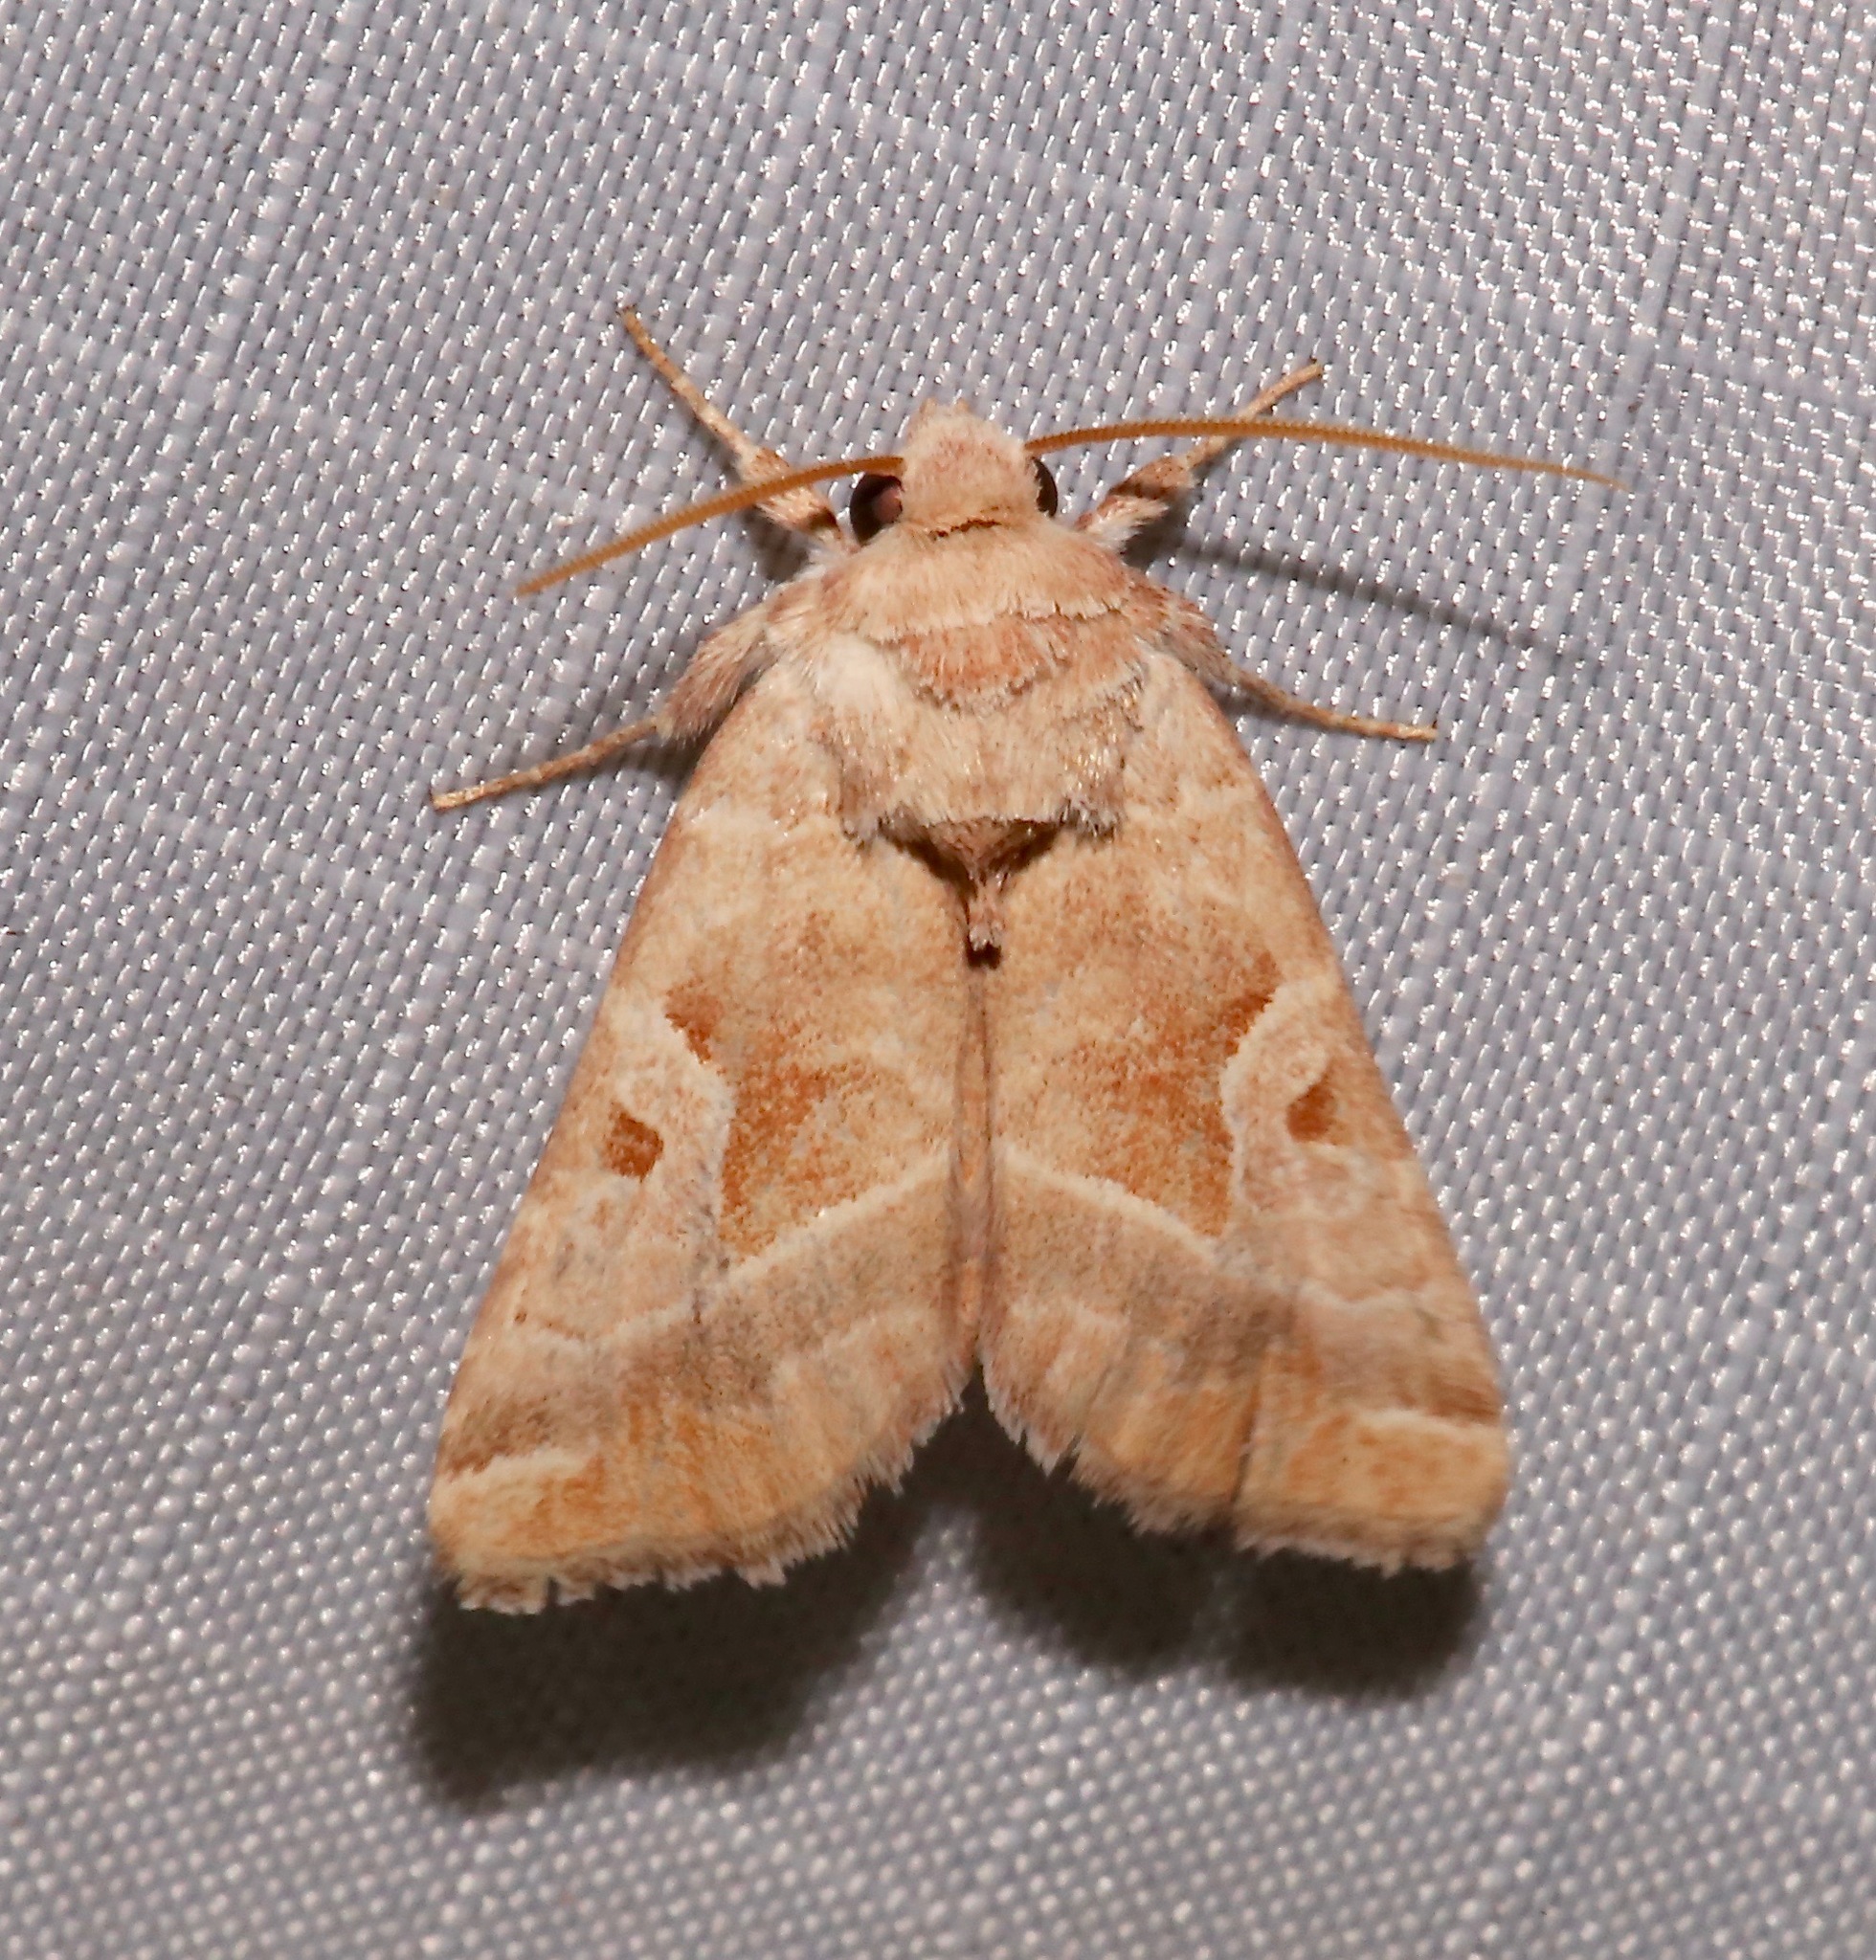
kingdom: Animalia
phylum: Arthropoda
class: Insecta
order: Lepidoptera
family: Noctuidae
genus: Hexorthodes
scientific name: Hexorthodes accurata
